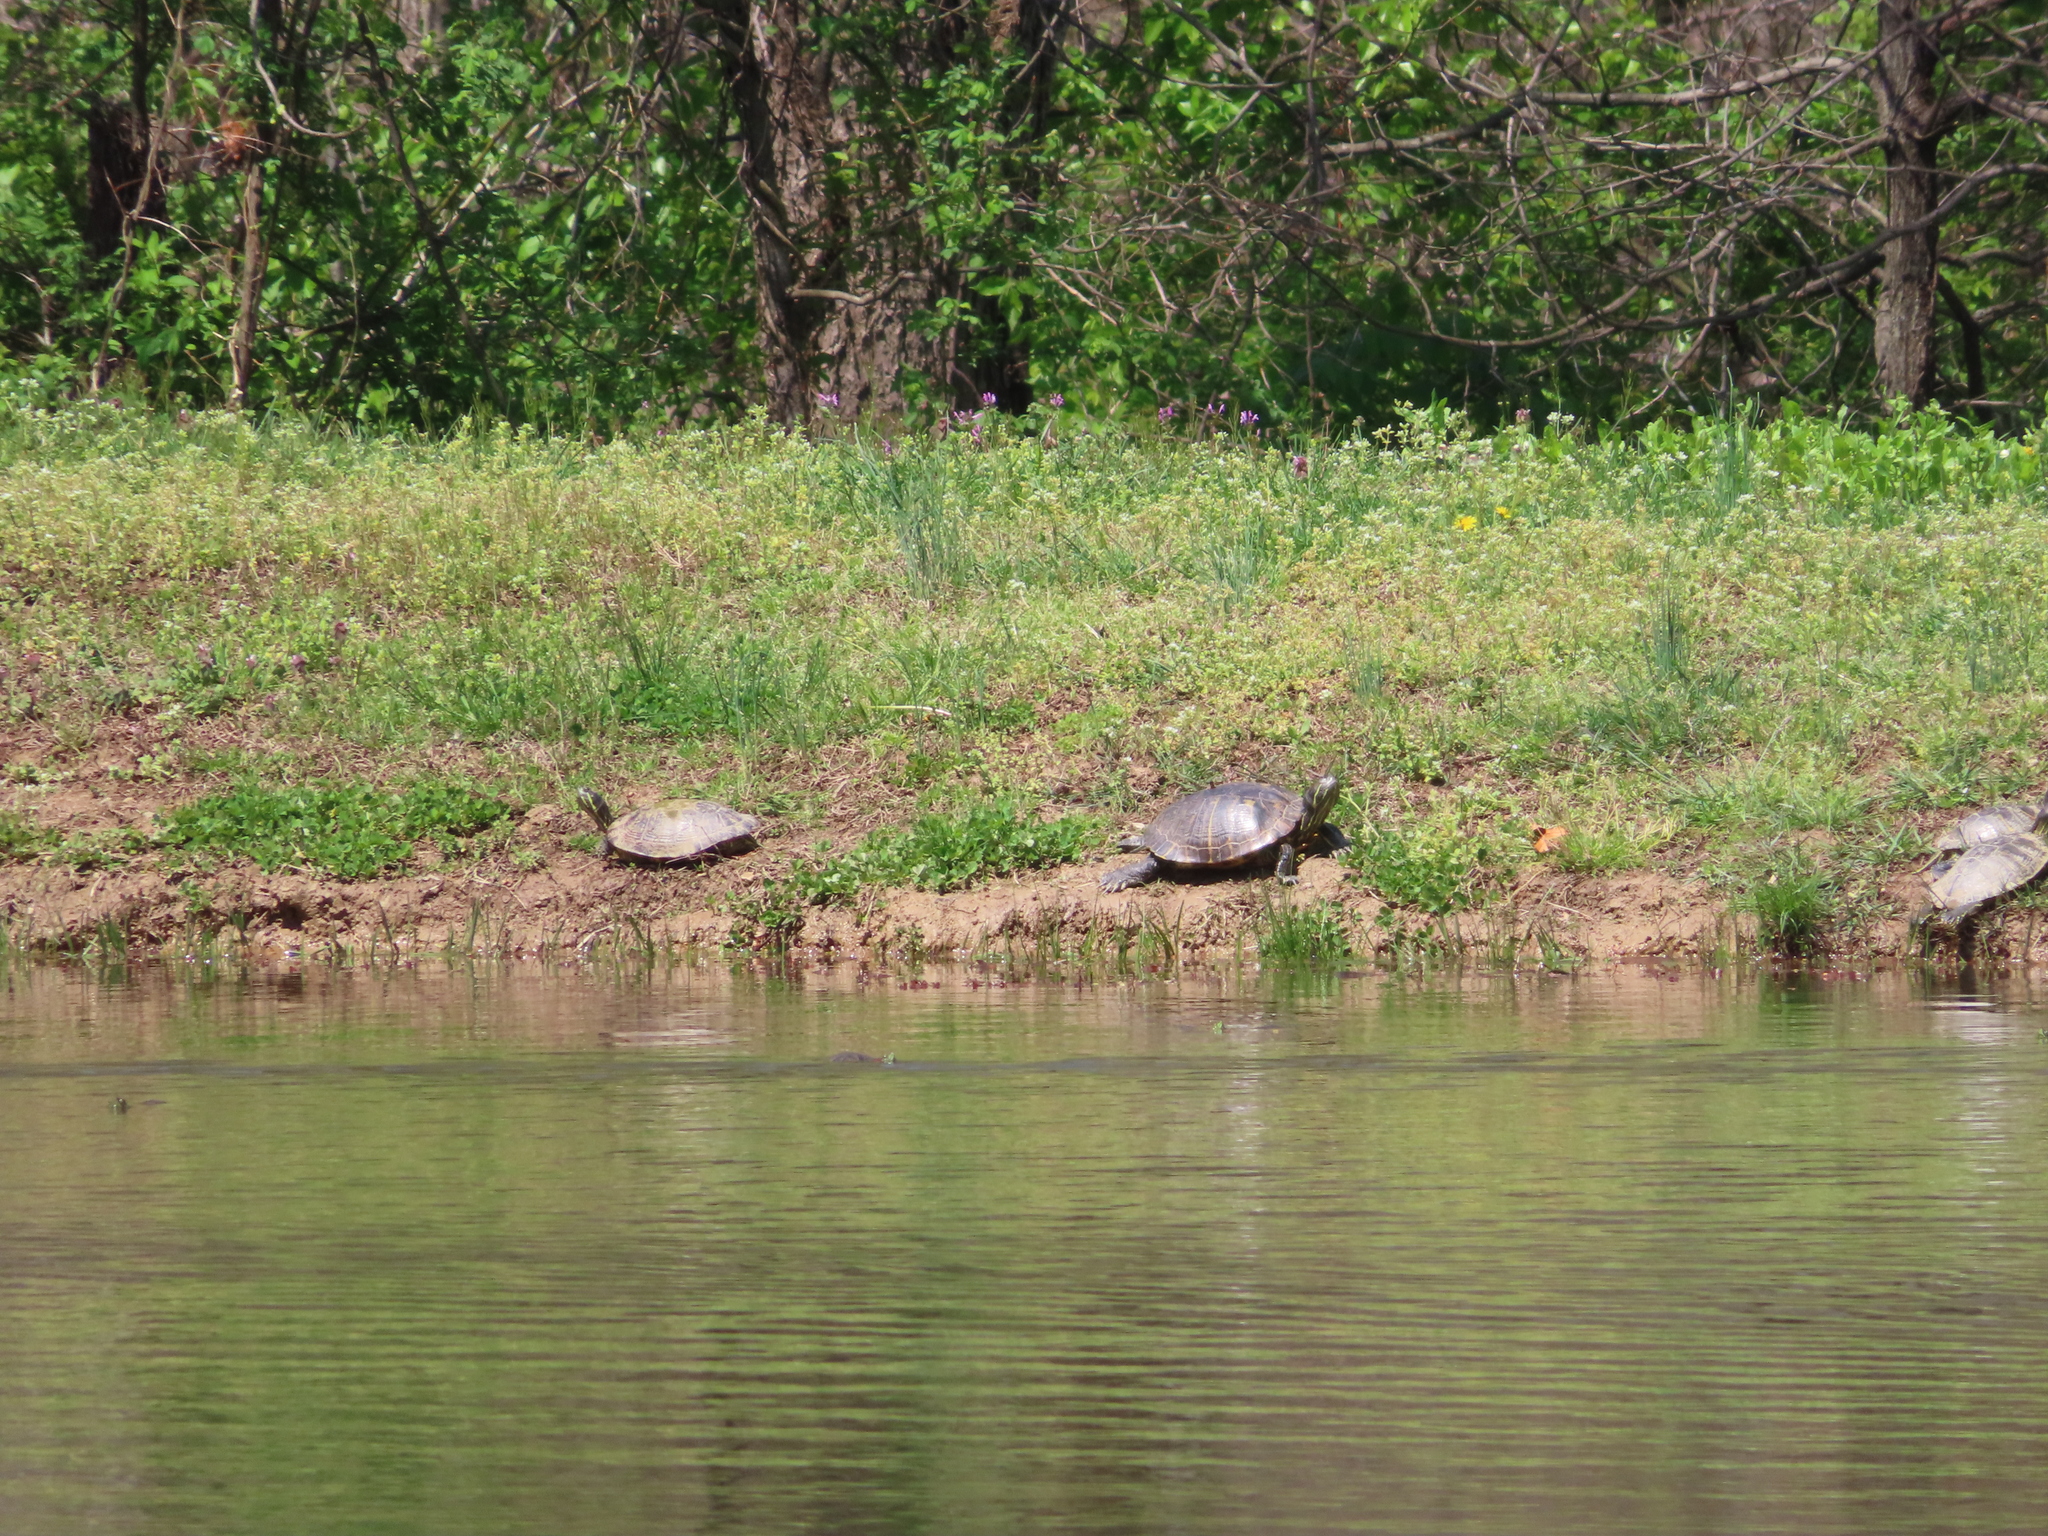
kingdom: Animalia
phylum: Chordata
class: Testudines
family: Emydidae
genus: Trachemys
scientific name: Trachemys scripta
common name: Slider
